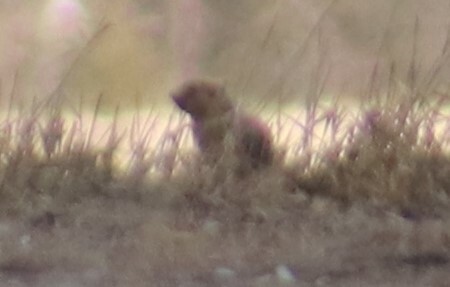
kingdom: Animalia
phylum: Chordata
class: Mammalia
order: Rodentia
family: Sciuridae
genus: Urocitellus
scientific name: Urocitellus richardsonii
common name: Richardson's ground squirrel
